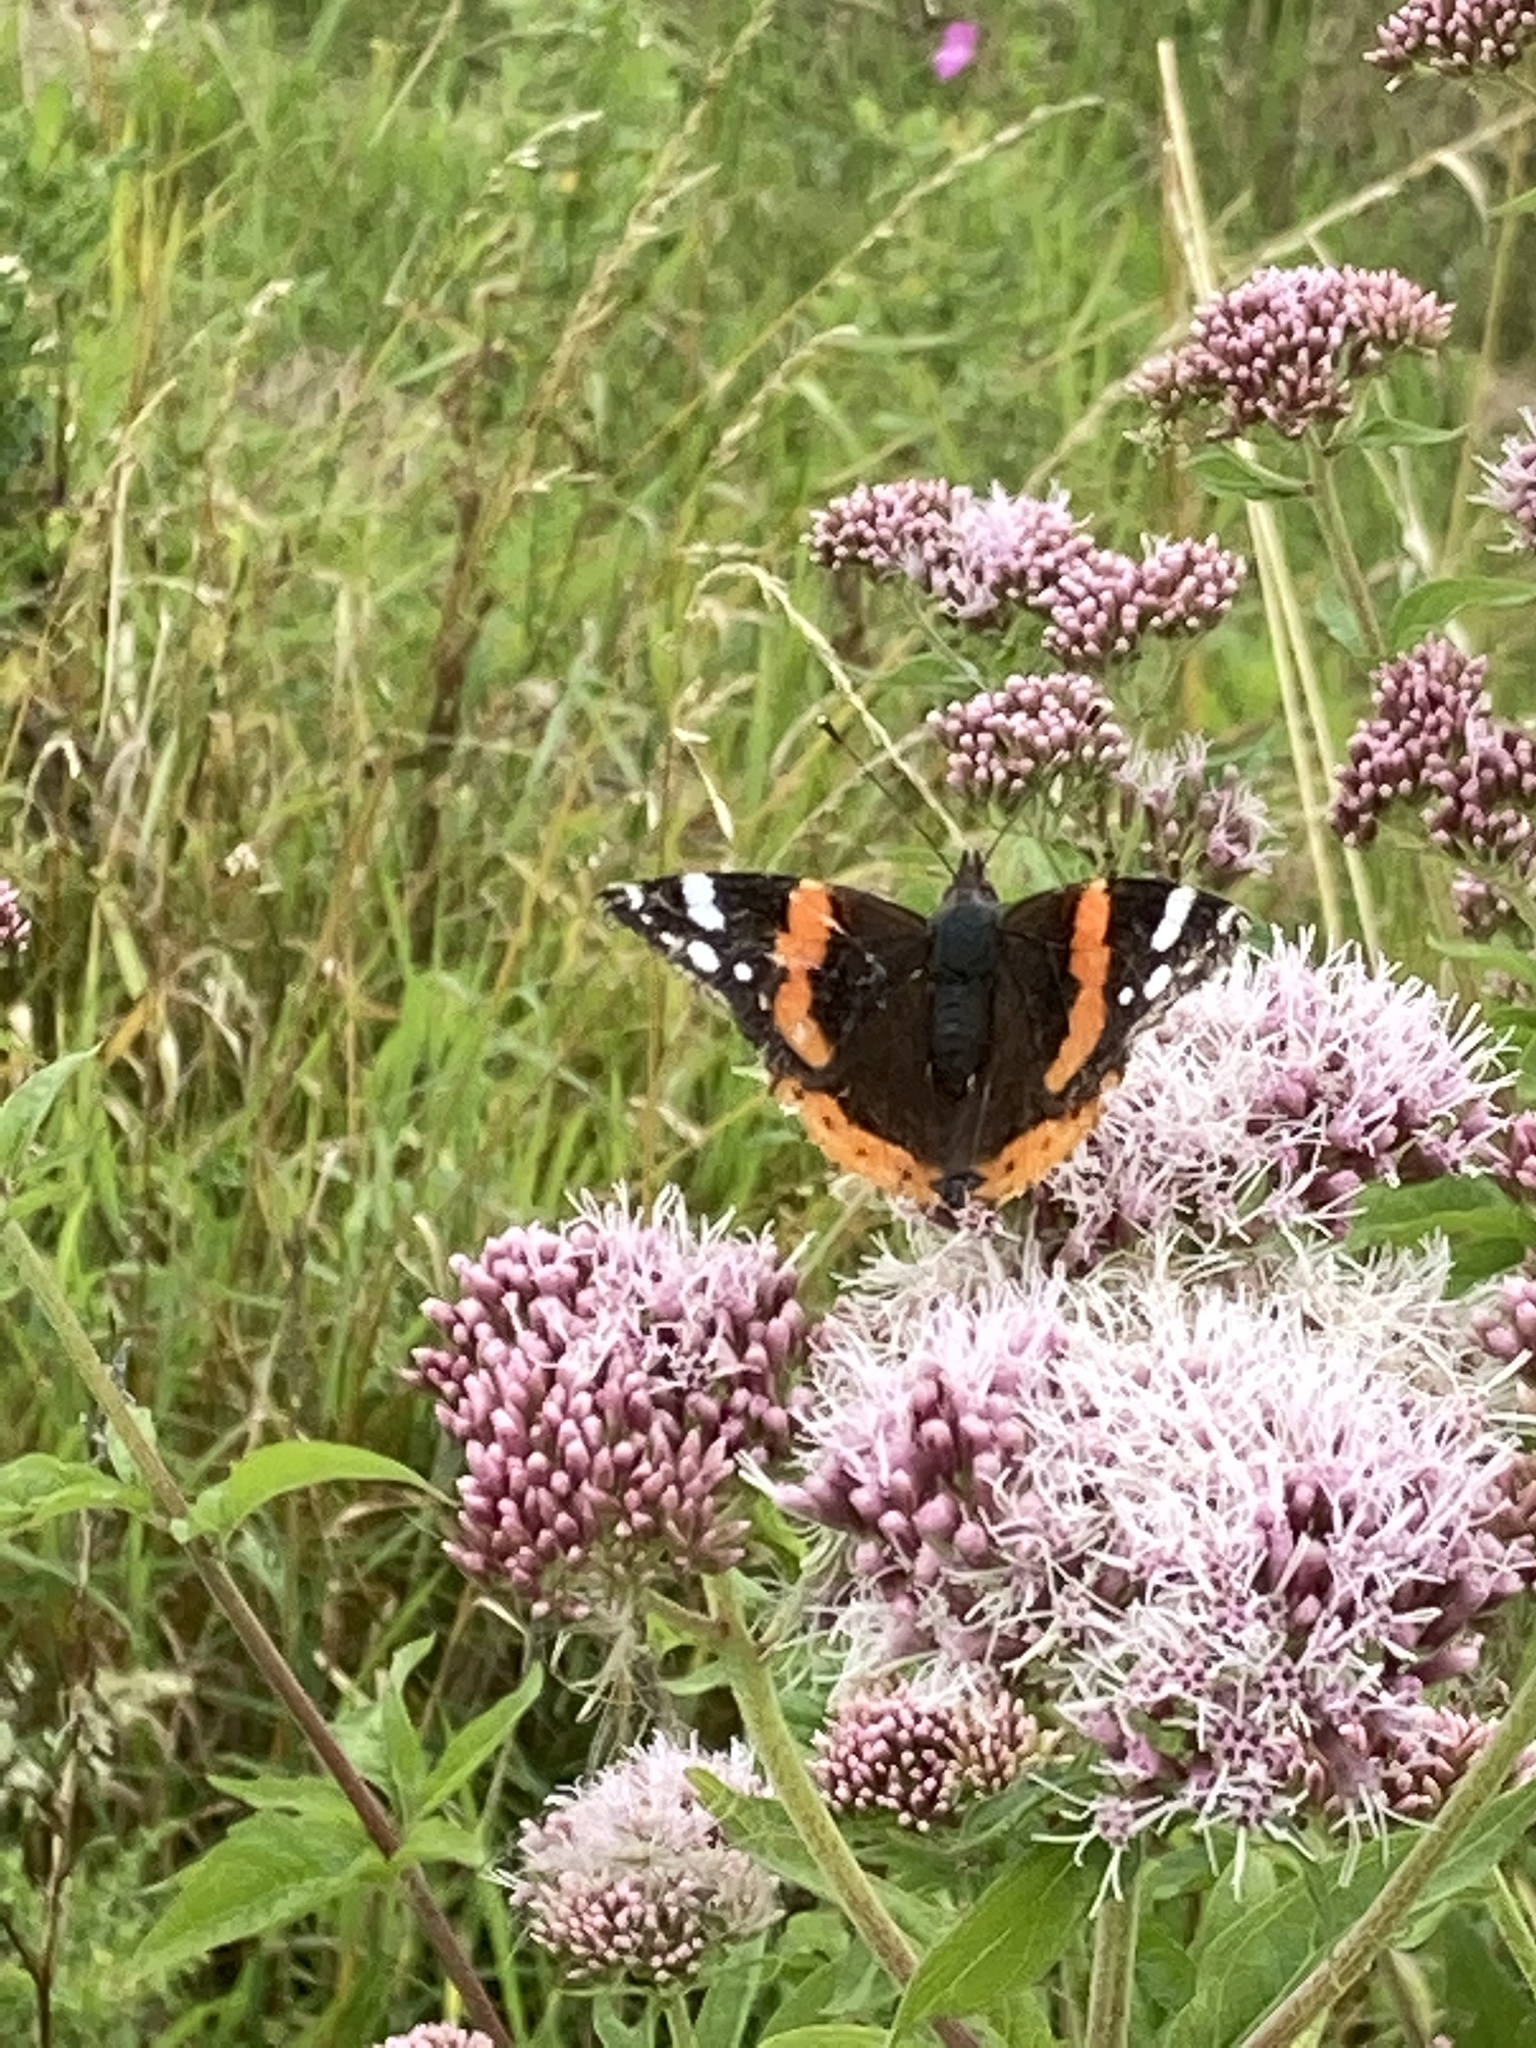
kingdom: Animalia
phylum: Arthropoda
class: Insecta
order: Lepidoptera
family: Nymphalidae
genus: Vanessa
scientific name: Vanessa atalanta
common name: Red admiral
